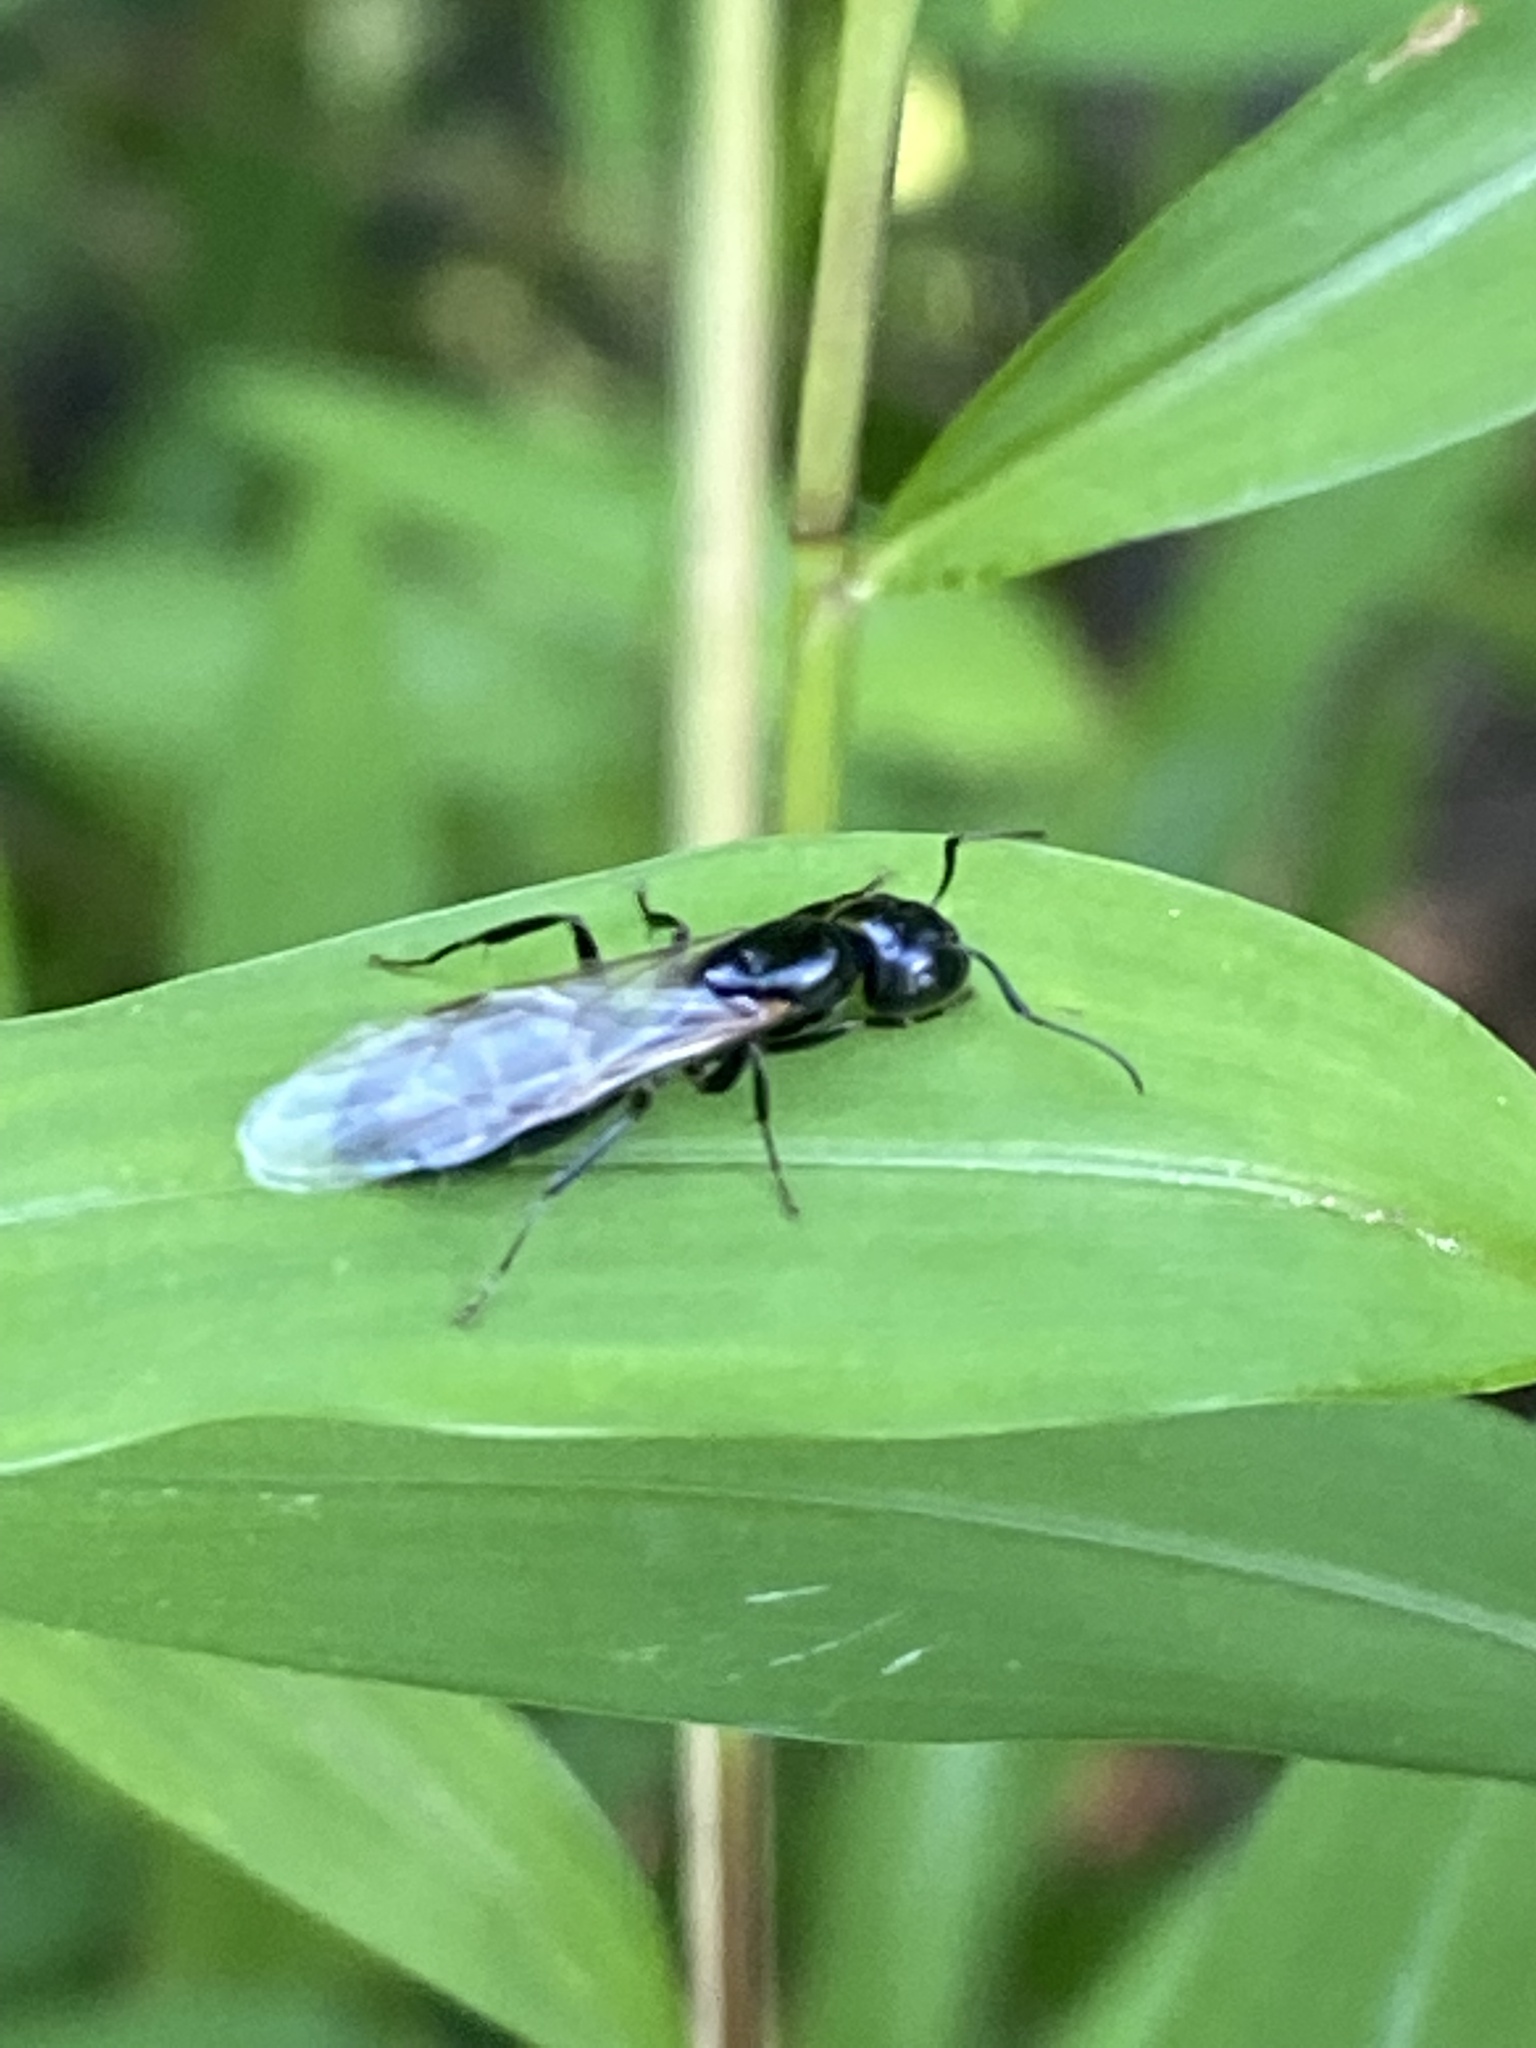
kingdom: Animalia
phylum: Arthropoda
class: Insecta
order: Hymenoptera
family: Formicidae
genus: Camponotus
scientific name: Camponotus pennsylvanicus
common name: Black carpenter ant
